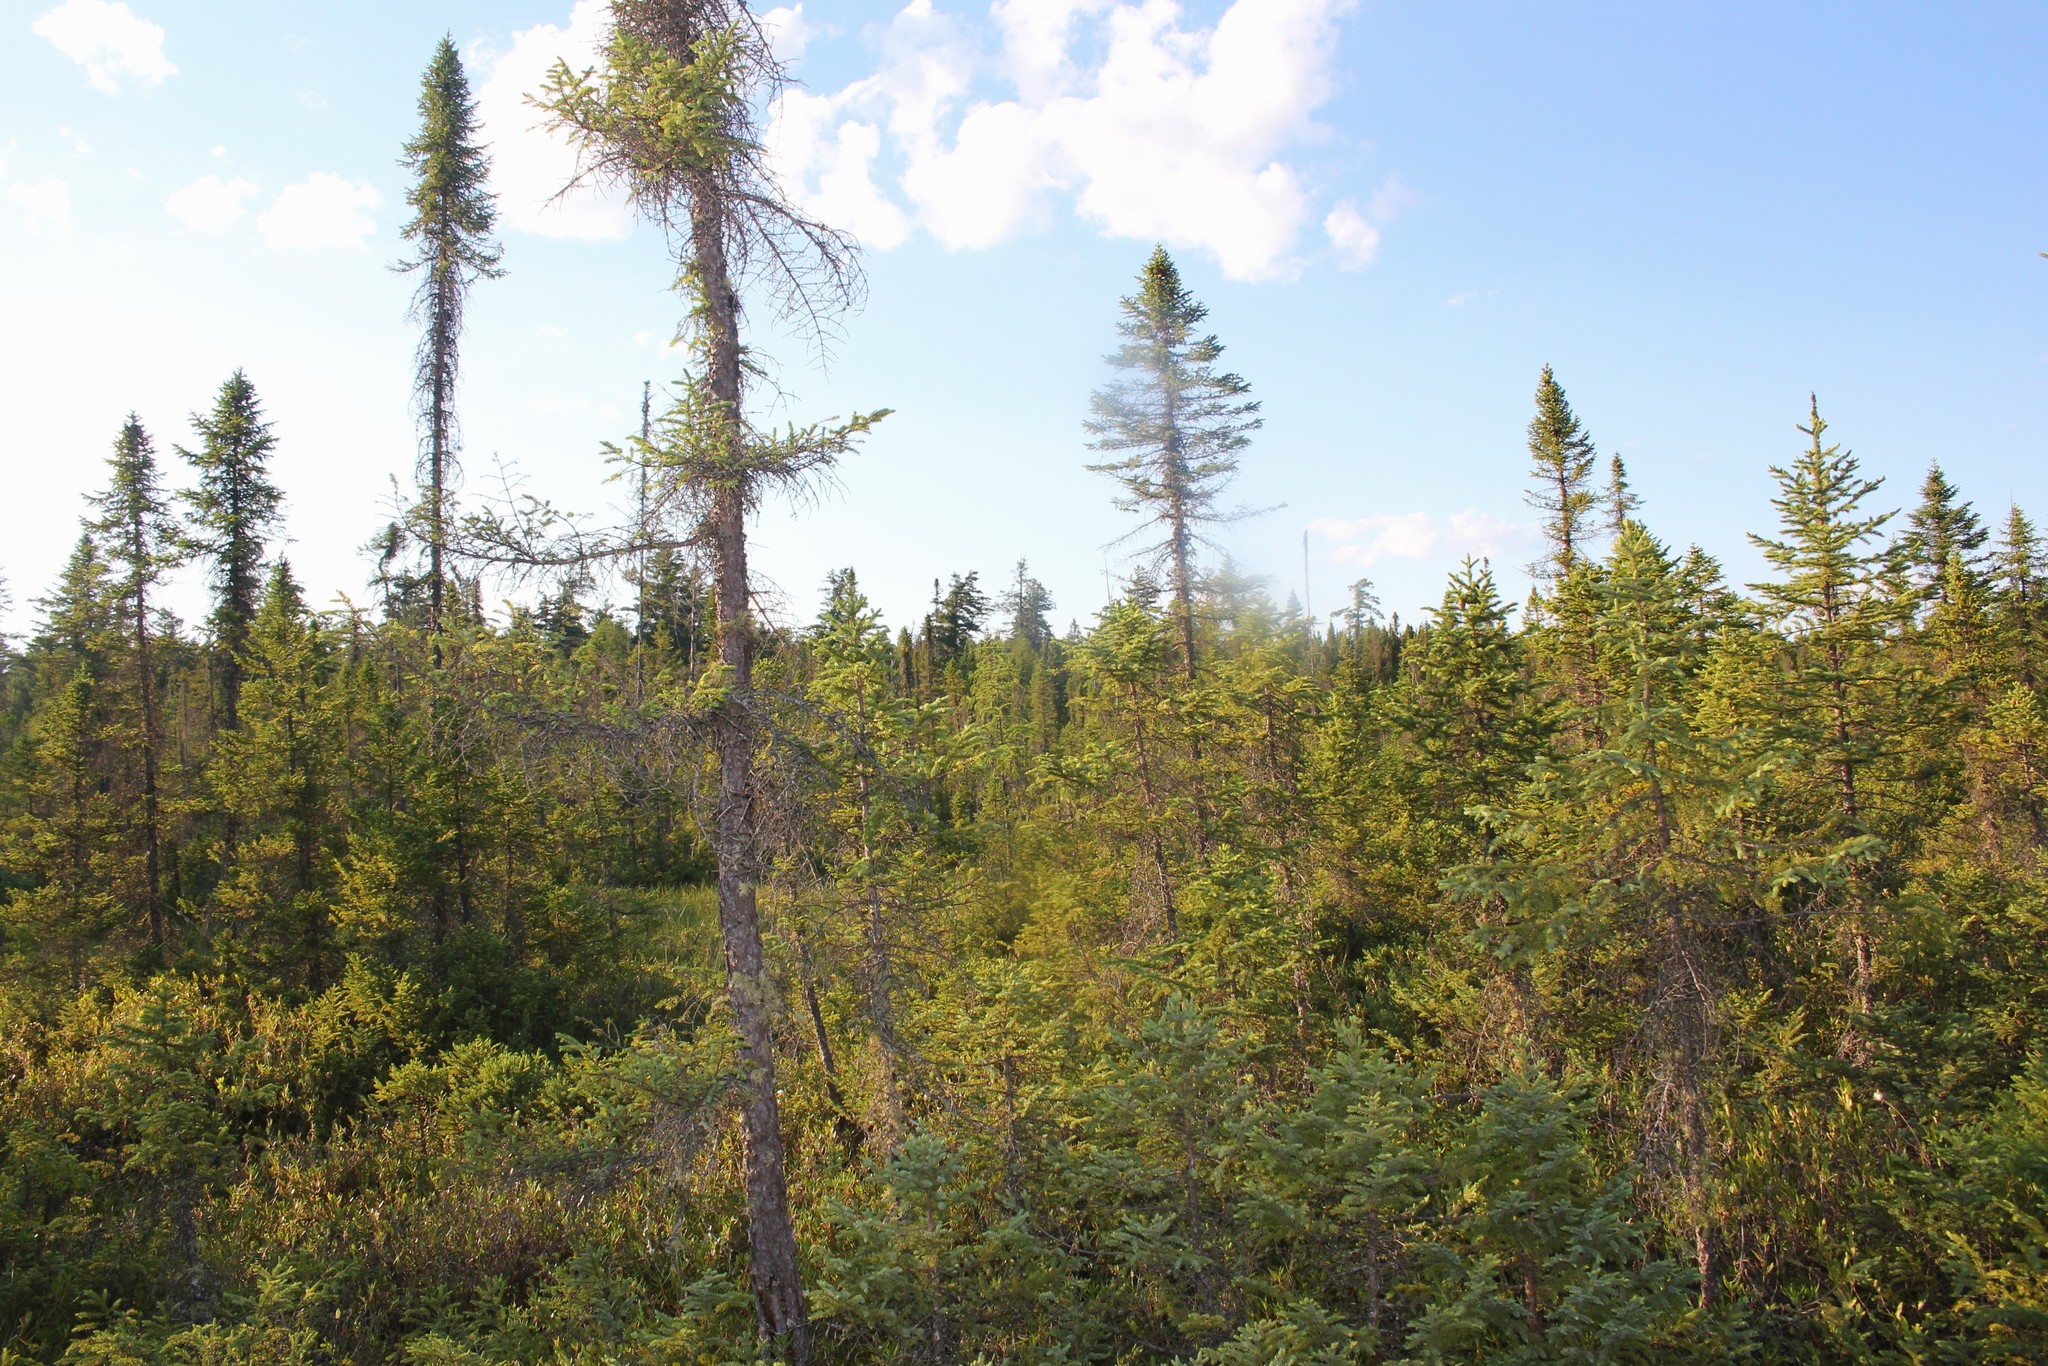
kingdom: Plantae
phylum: Tracheophyta
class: Pinopsida
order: Pinales
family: Pinaceae
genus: Picea
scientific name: Picea mariana
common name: Black spruce
